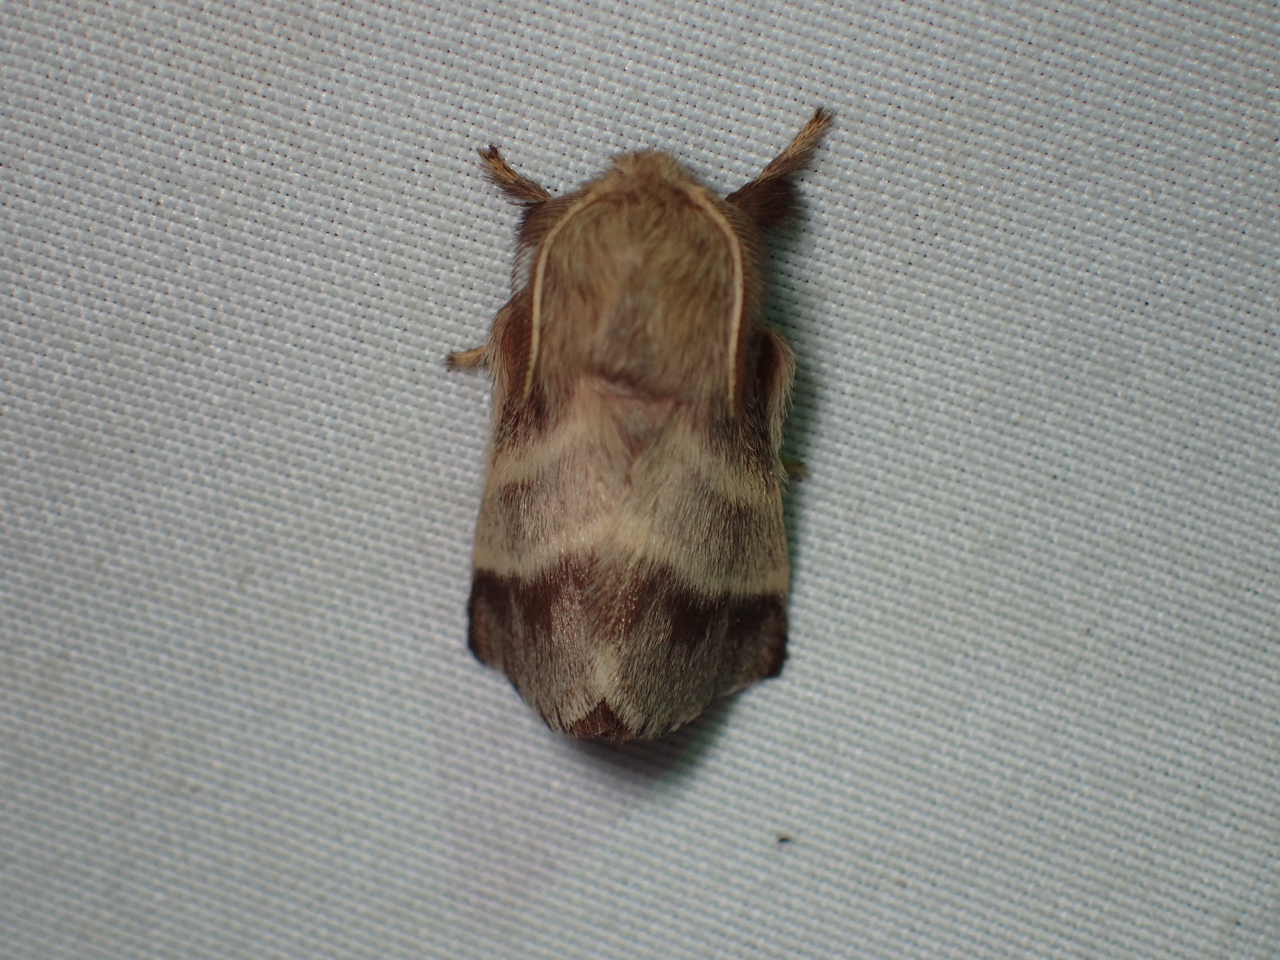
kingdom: Animalia
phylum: Arthropoda
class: Insecta
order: Lepidoptera
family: Lasiocampidae
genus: Malacosoma
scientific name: Malacosoma americana
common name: Eastern tent caterpillar moth
